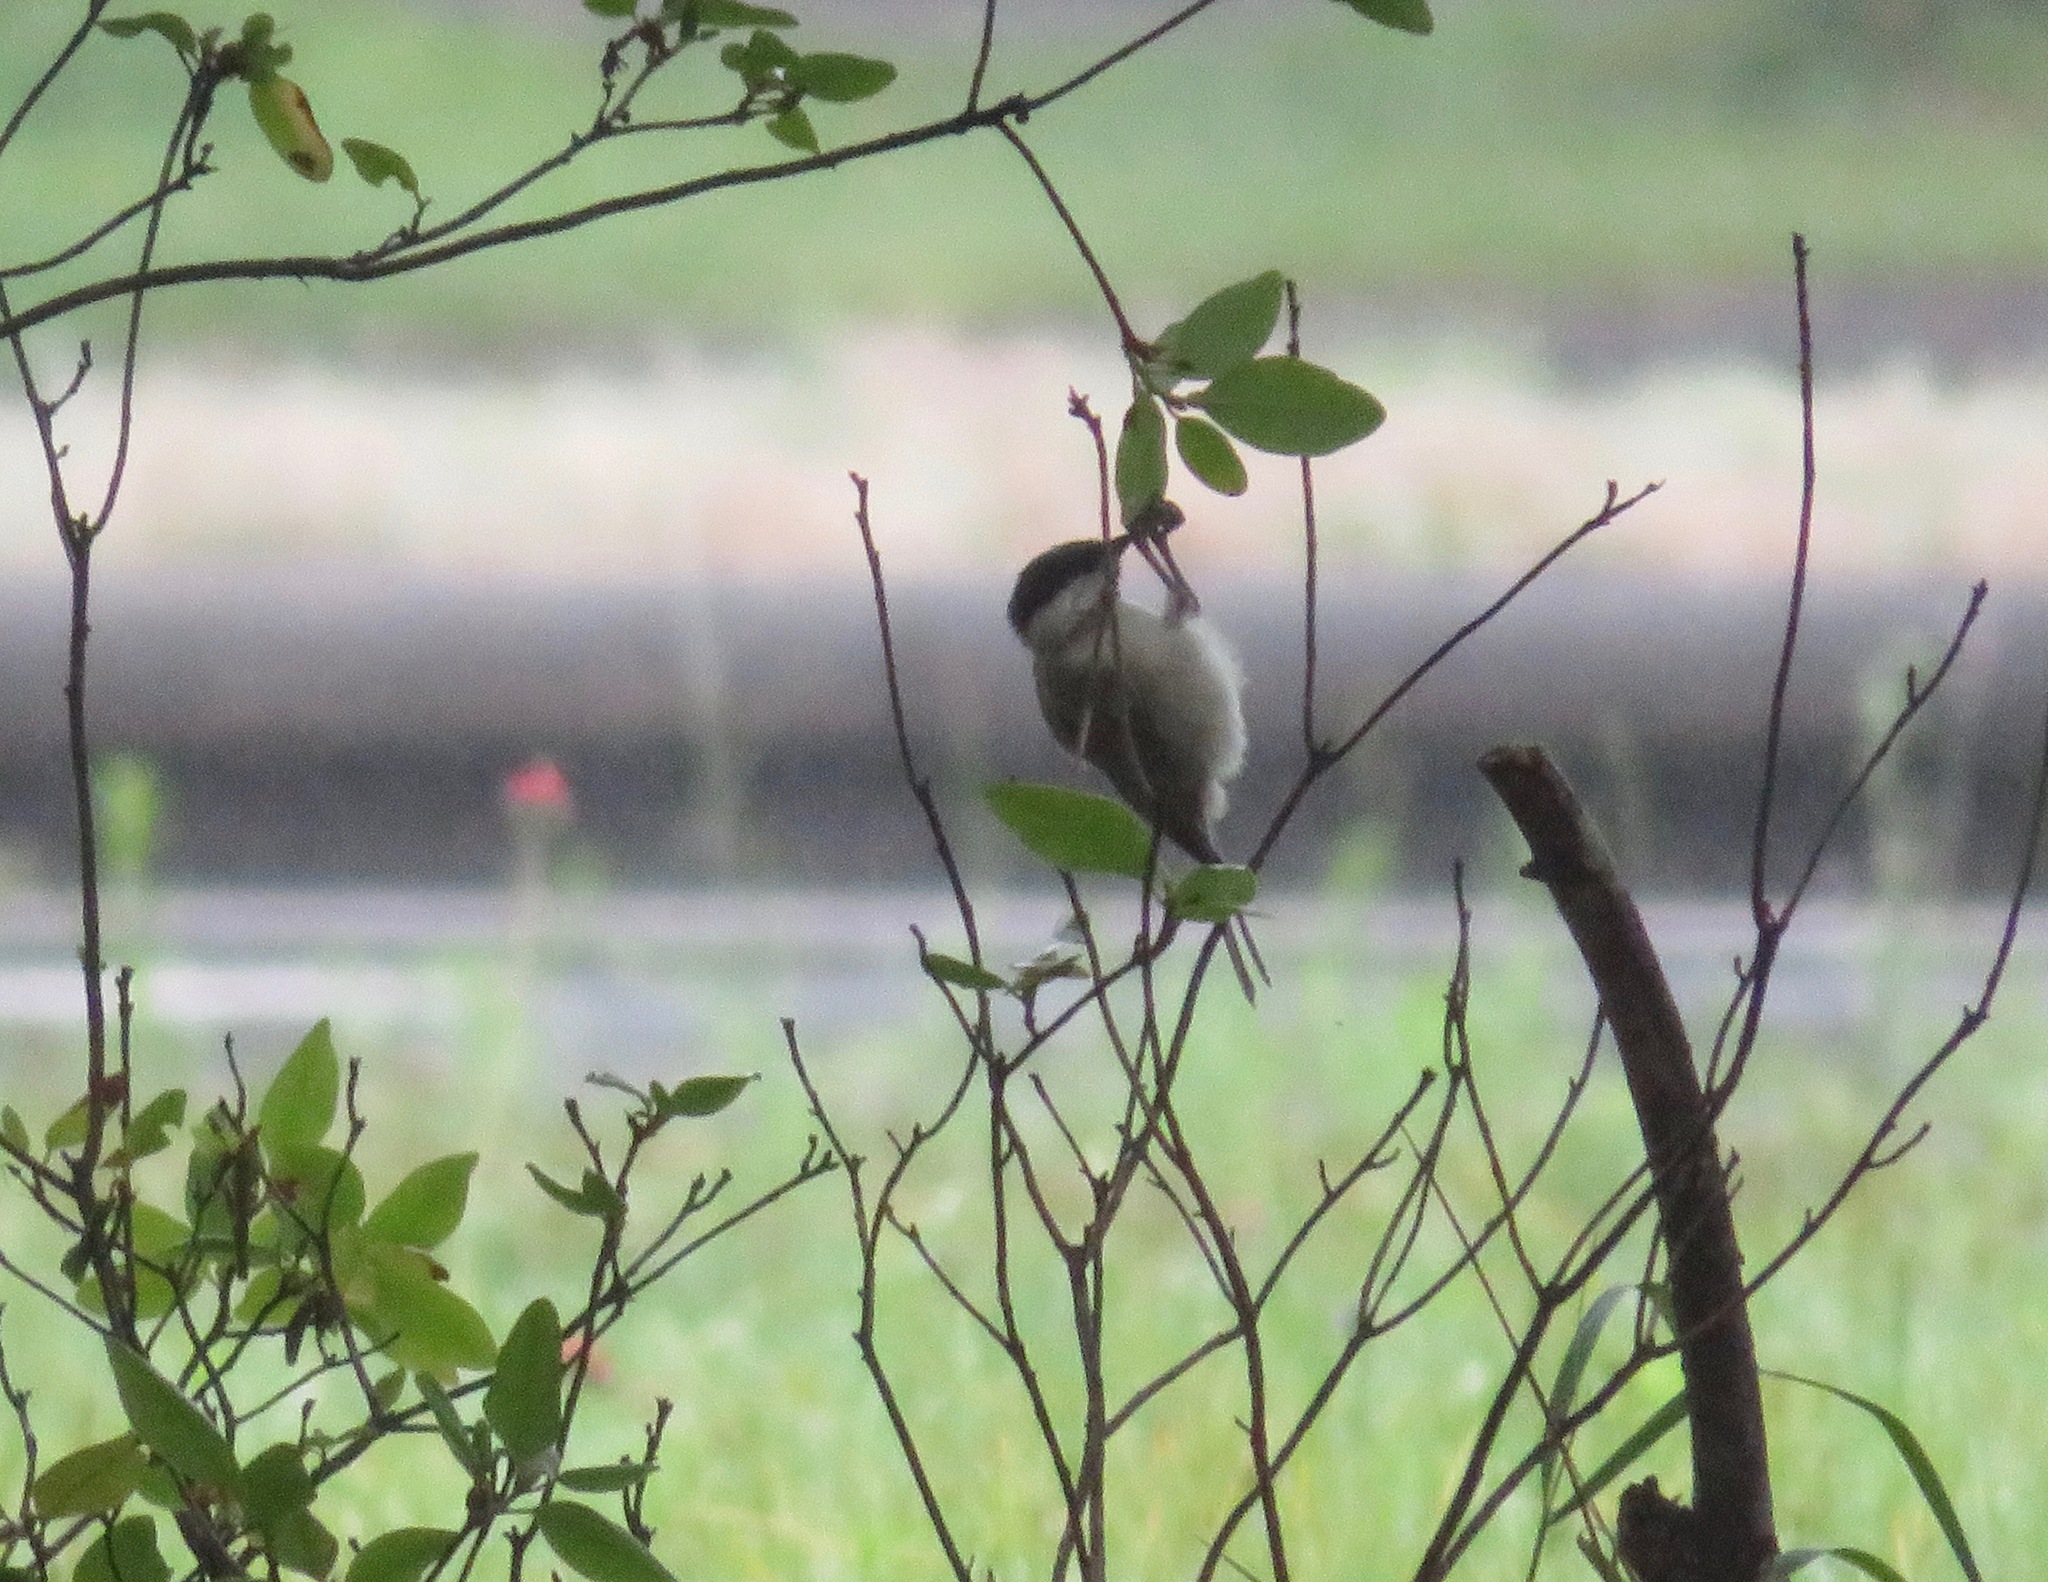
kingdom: Animalia
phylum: Chordata
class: Aves
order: Passeriformes
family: Paridae
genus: Poecile
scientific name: Poecile montanus
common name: Willow tit
